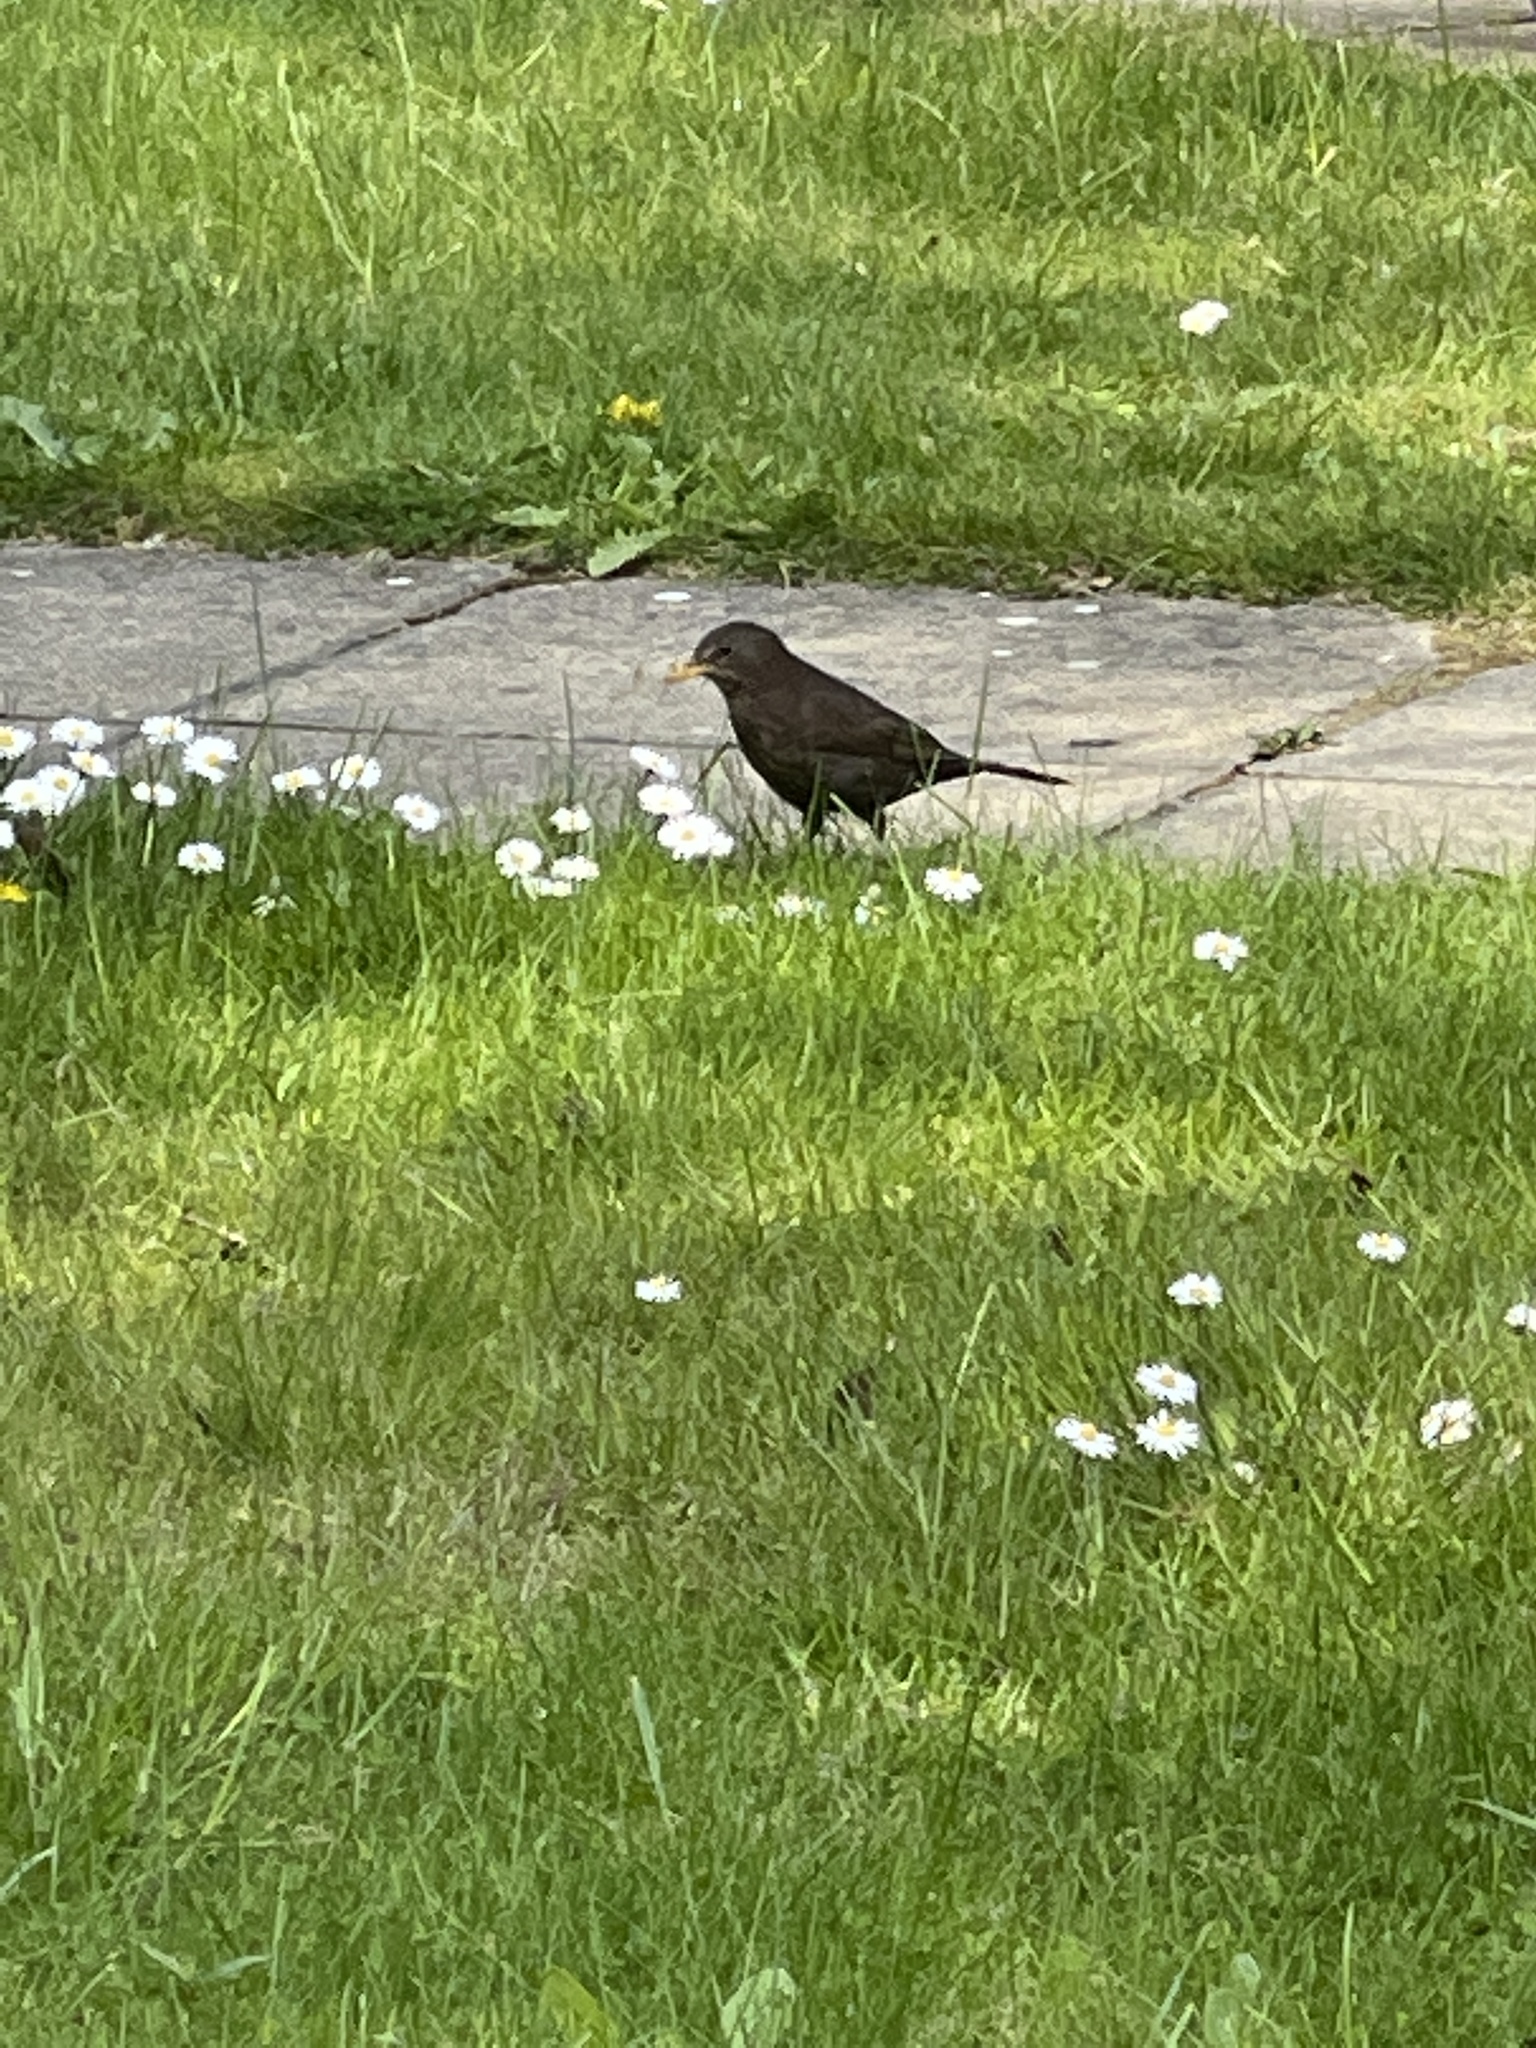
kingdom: Animalia
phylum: Chordata
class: Aves
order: Passeriformes
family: Turdidae
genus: Turdus
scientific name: Turdus merula
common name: Common blackbird
